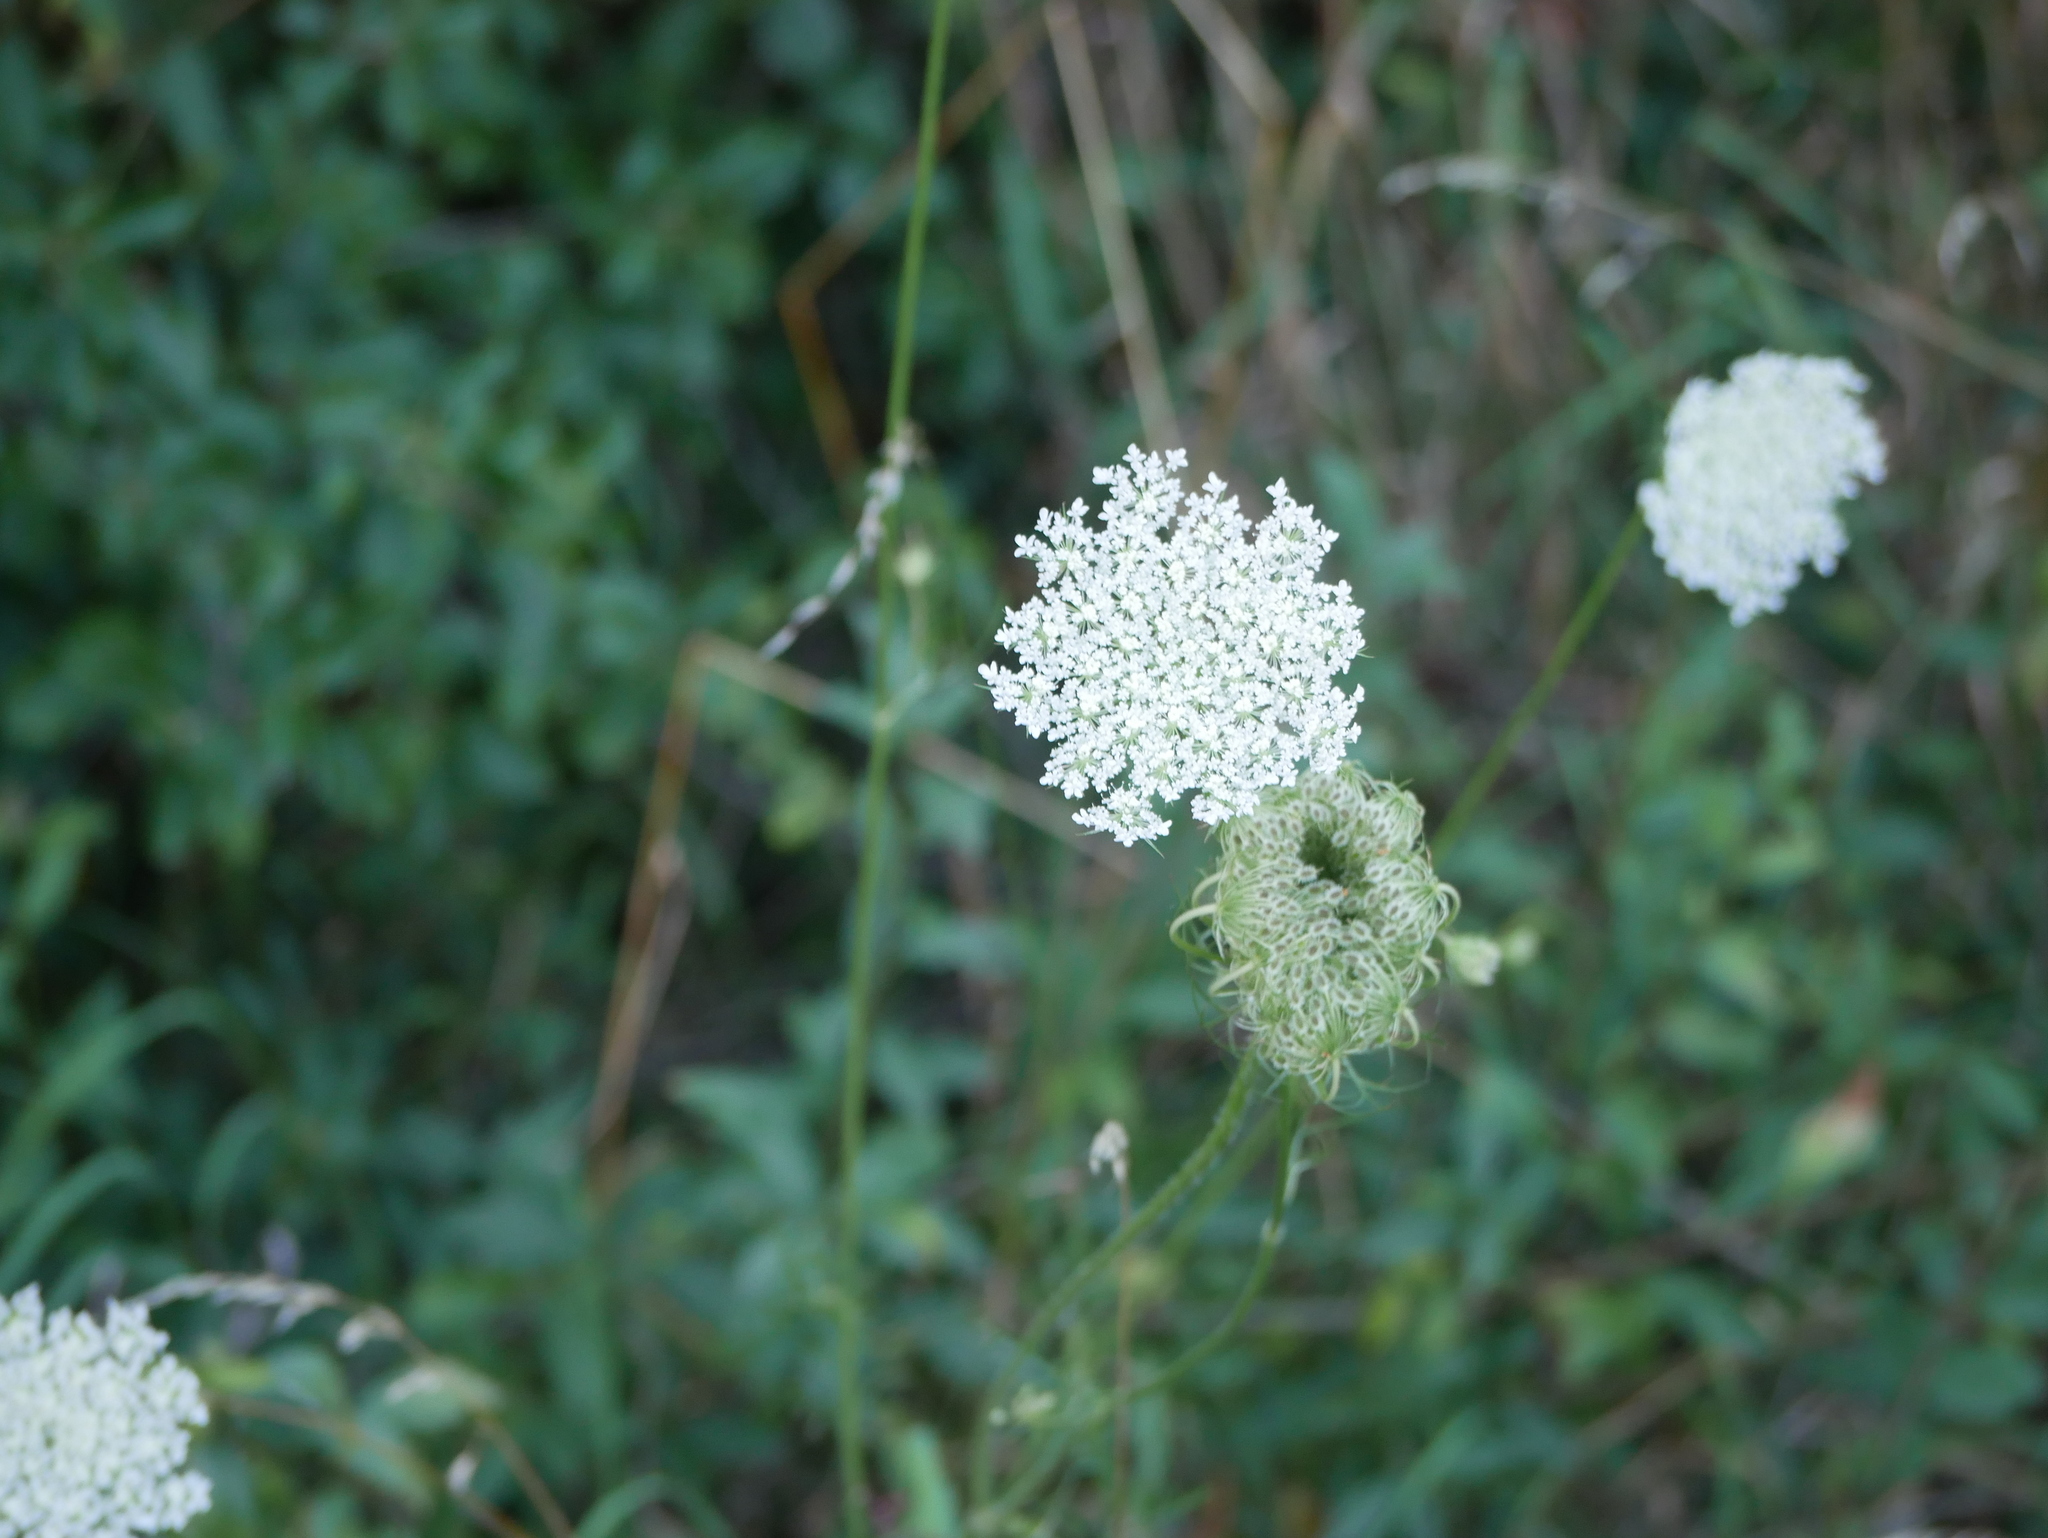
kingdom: Plantae
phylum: Tracheophyta
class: Magnoliopsida
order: Apiales
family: Apiaceae
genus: Daucus
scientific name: Daucus carota
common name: Wild carrot
